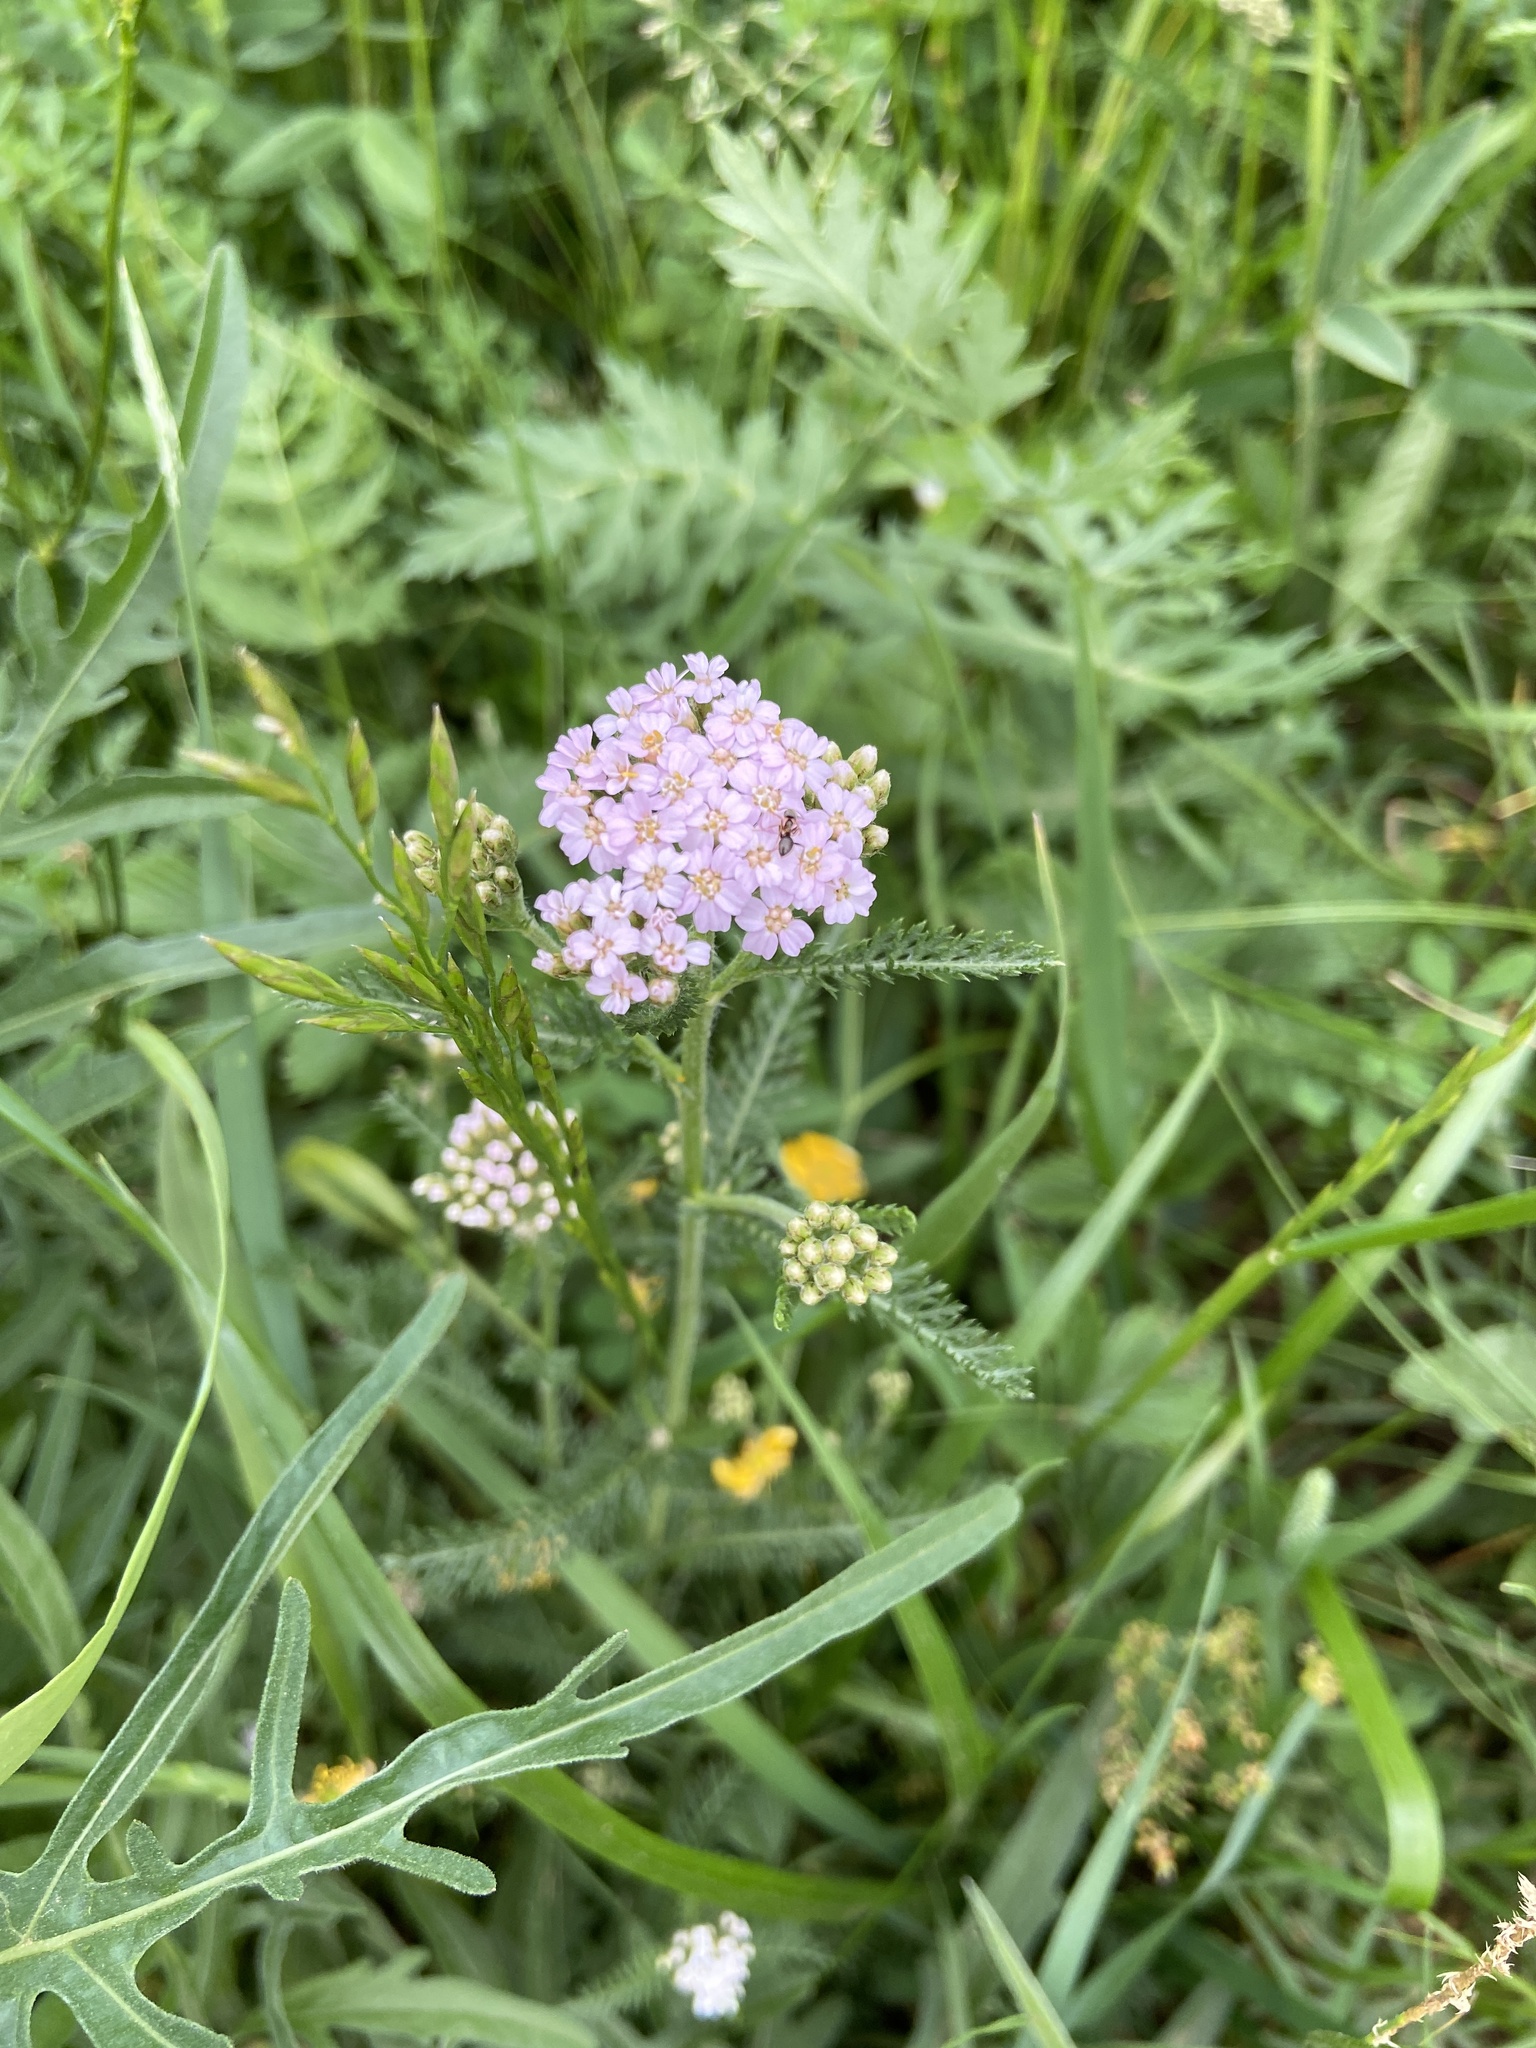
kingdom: Plantae
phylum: Tracheophyta
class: Magnoliopsida
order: Asterales
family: Asteraceae
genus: Achillea
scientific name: Achillea millefolium
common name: Yarrow
